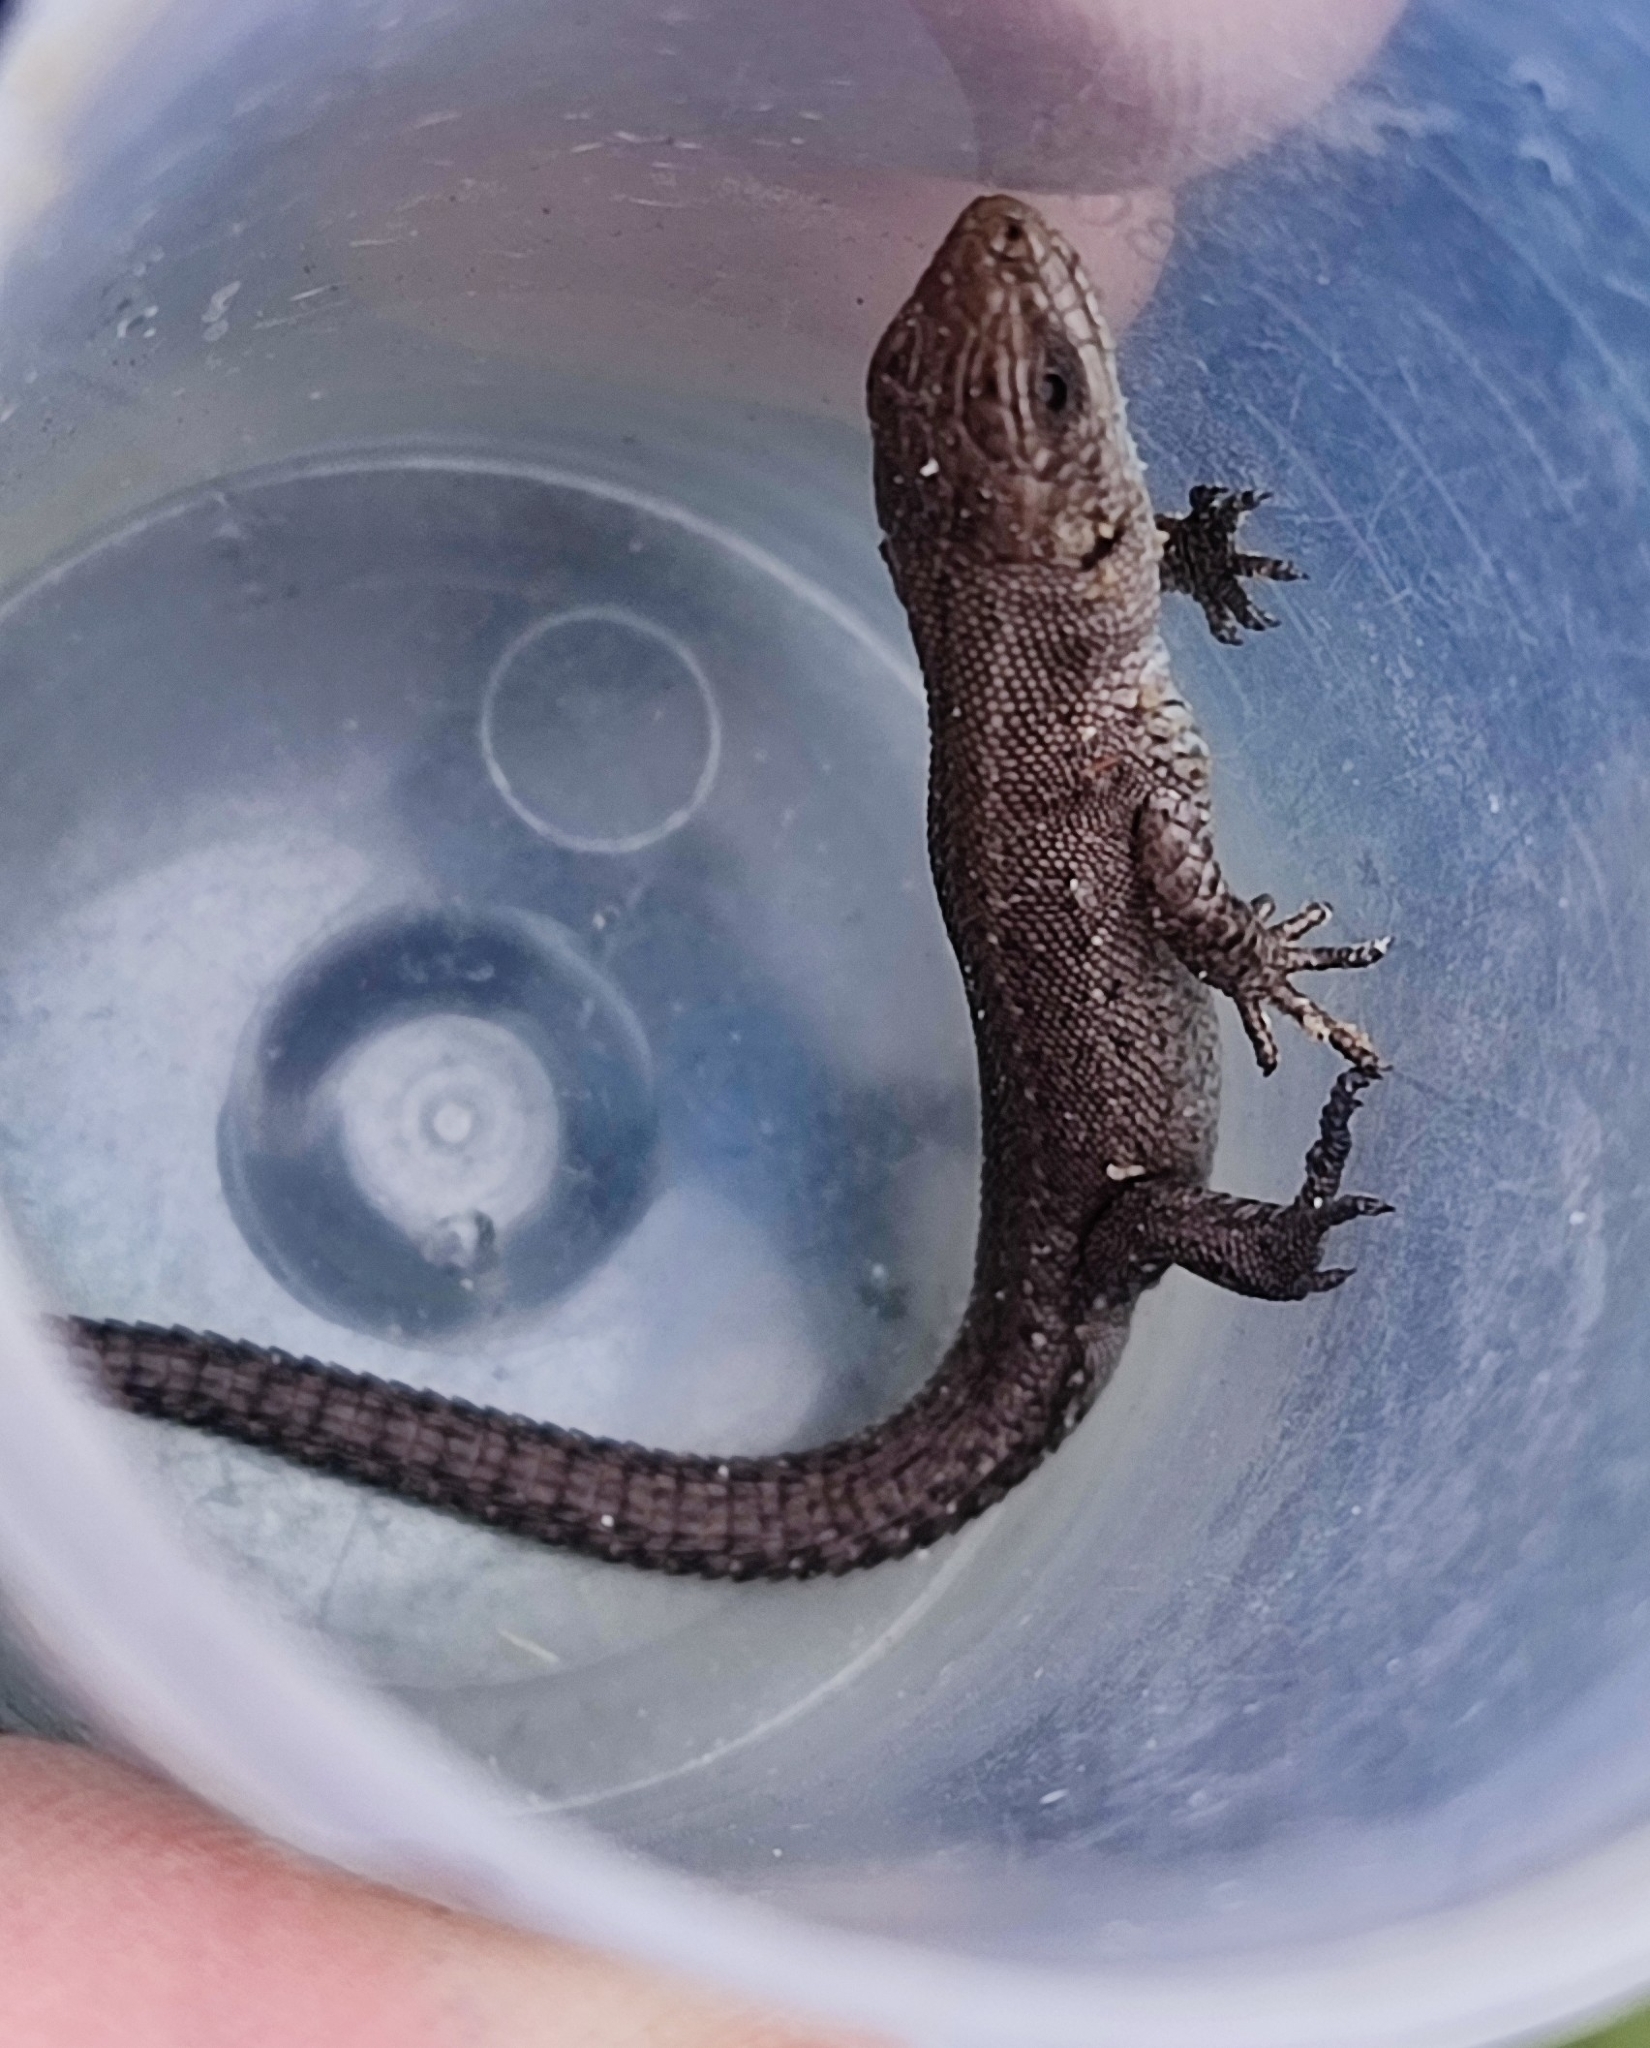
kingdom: Animalia
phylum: Chordata
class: Squamata
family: Lacertidae
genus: Zootoca
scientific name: Zootoca vivipara
